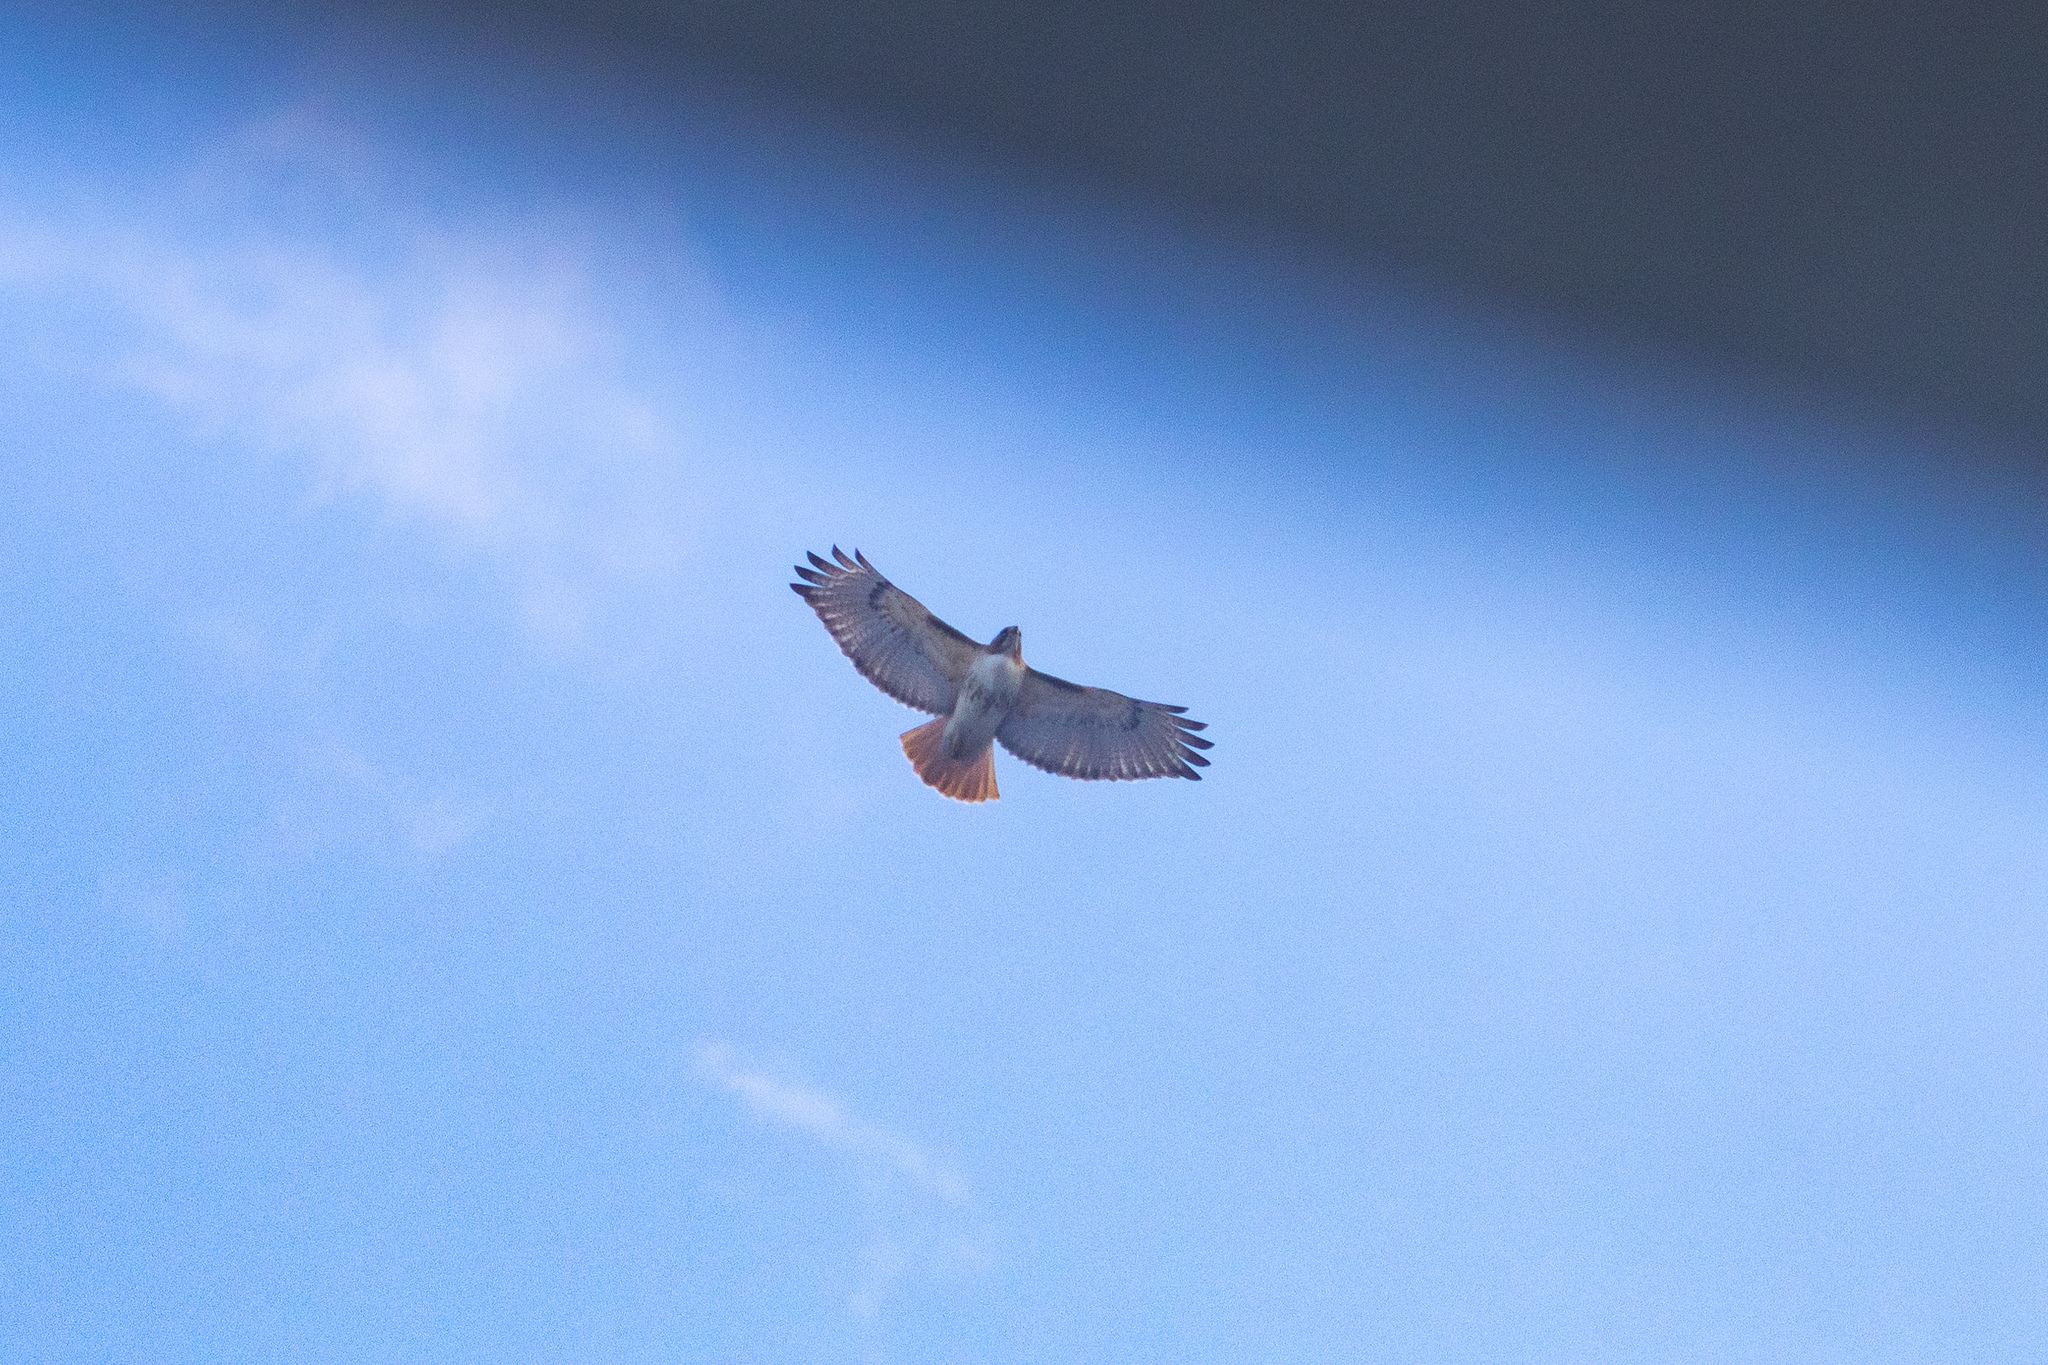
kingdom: Animalia
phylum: Chordata
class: Aves
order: Accipitriformes
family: Accipitridae
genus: Buteo
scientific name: Buteo jamaicensis
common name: Red-tailed hawk
